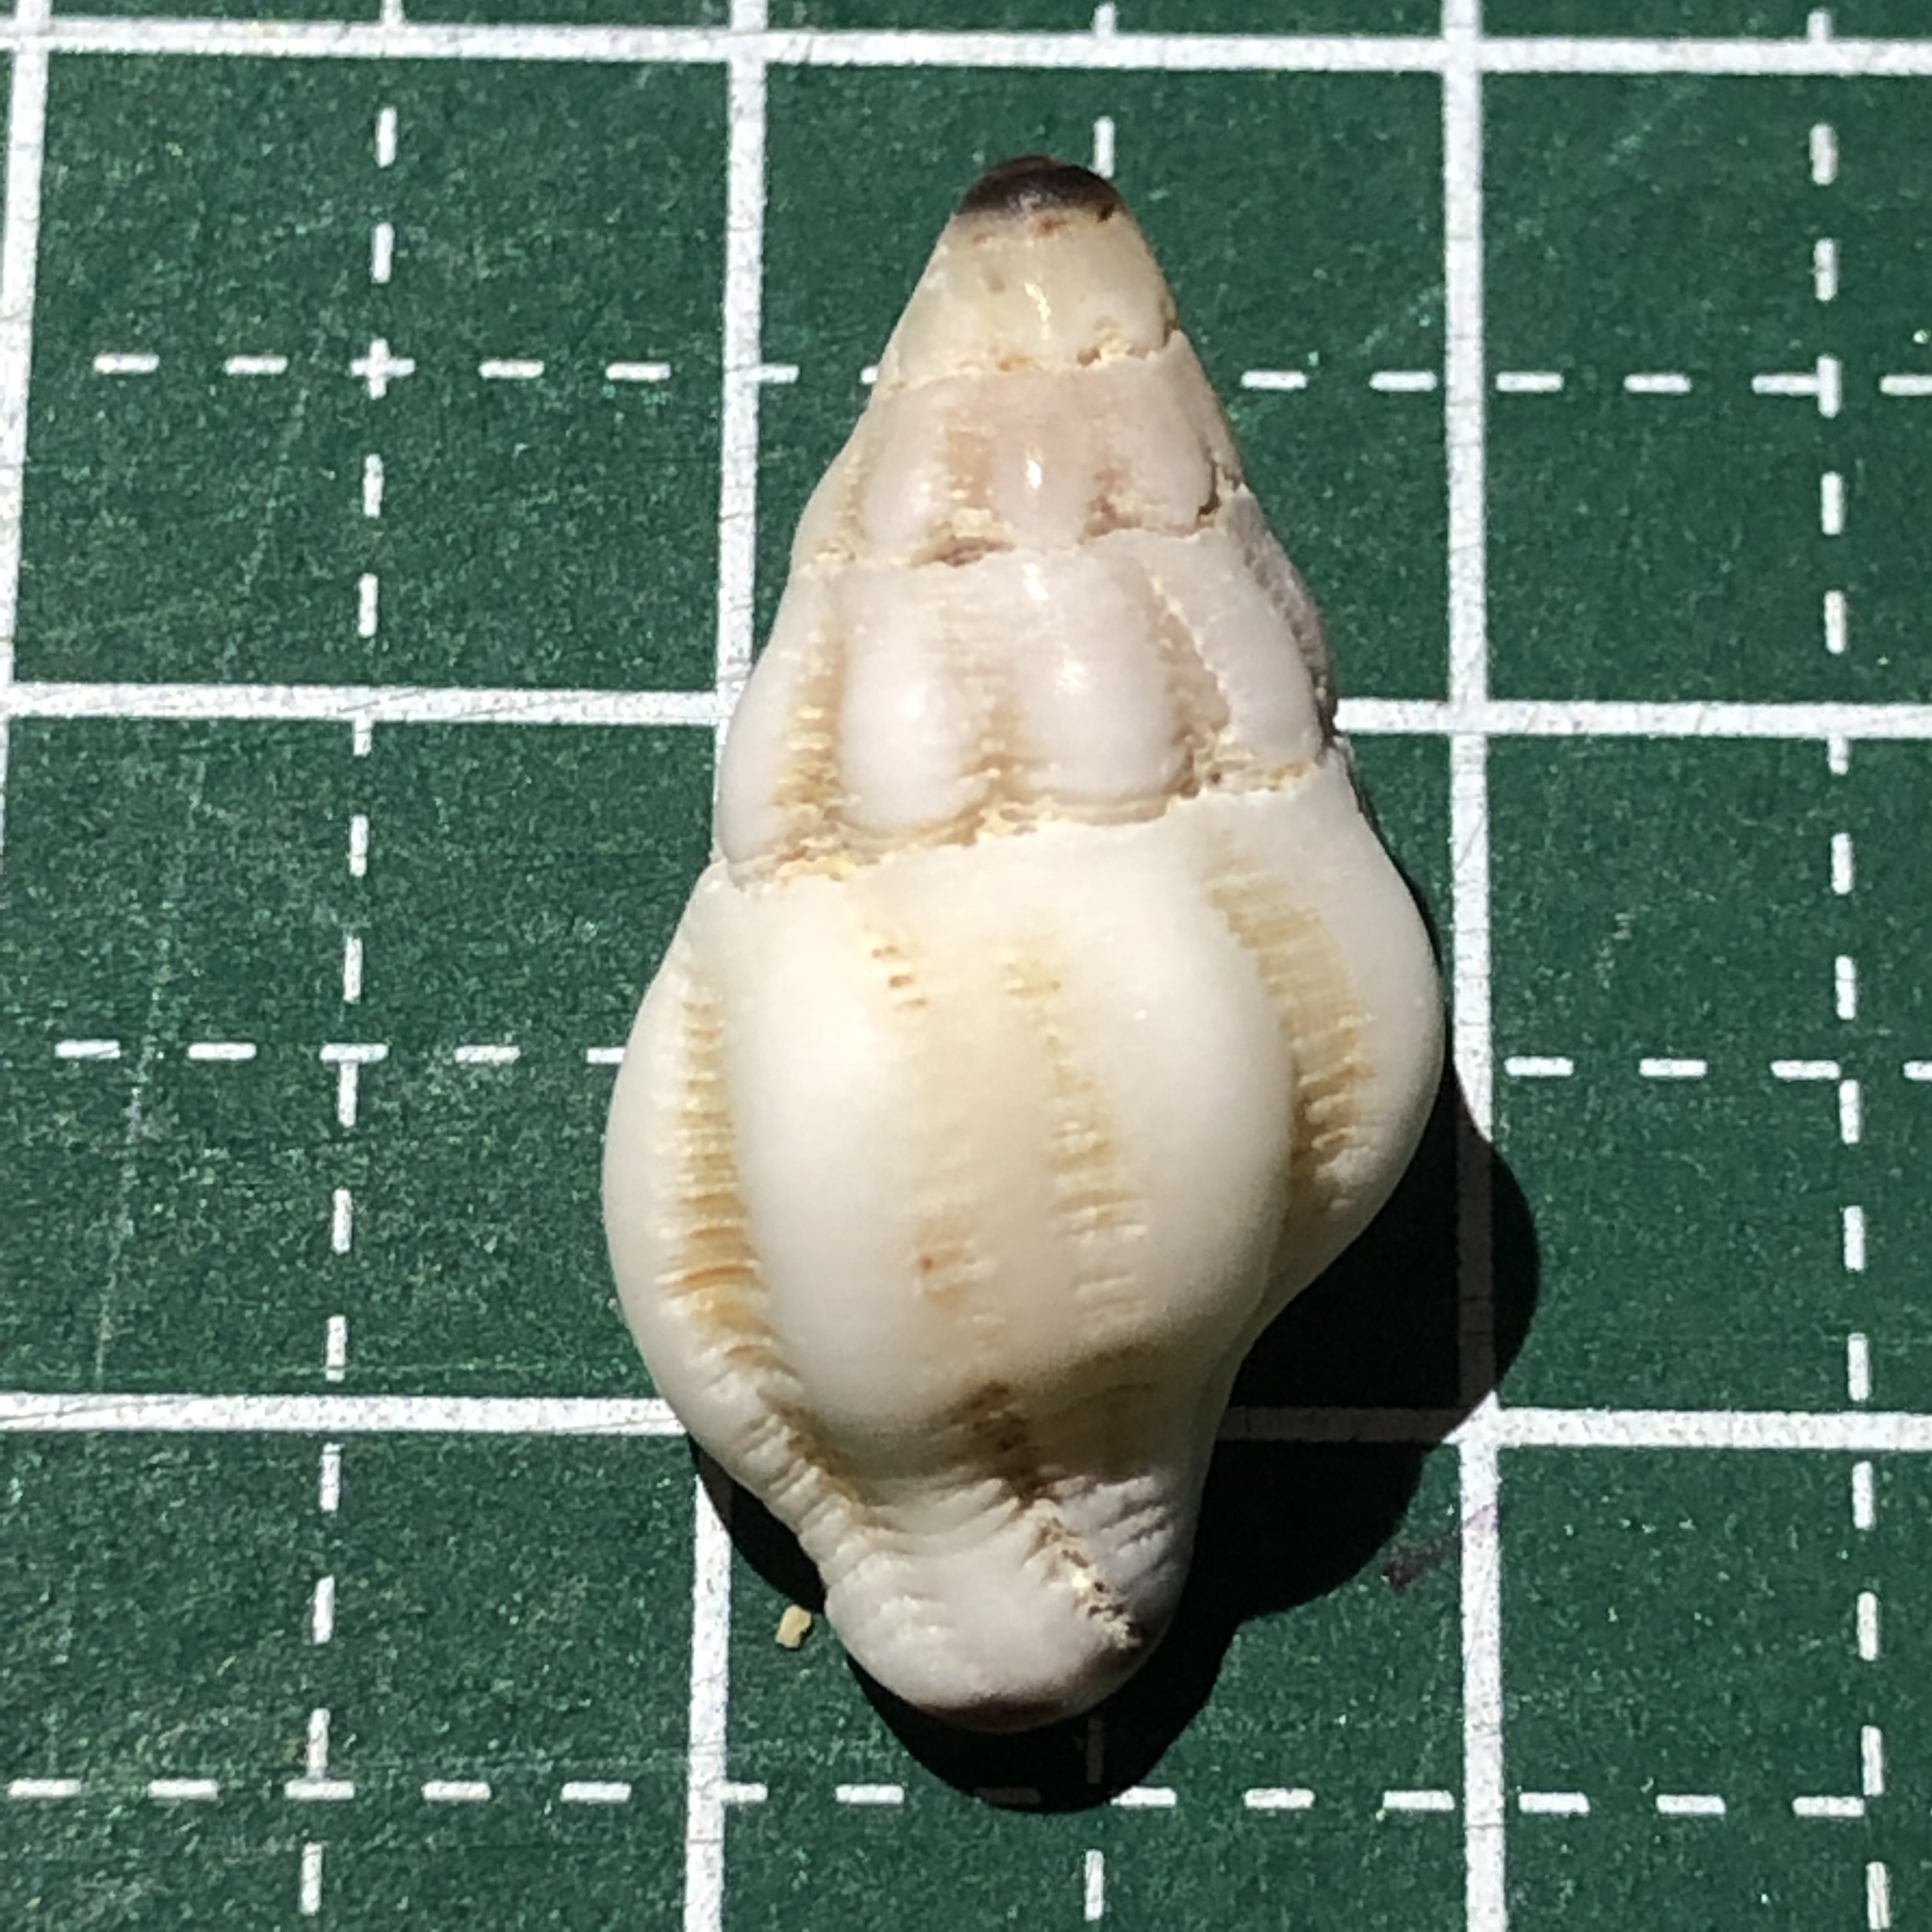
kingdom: Animalia
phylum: Mollusca
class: Gastropoda
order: Neogastropoda
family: Fasciolariidae
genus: Peristernia
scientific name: Peristernia ustulata
